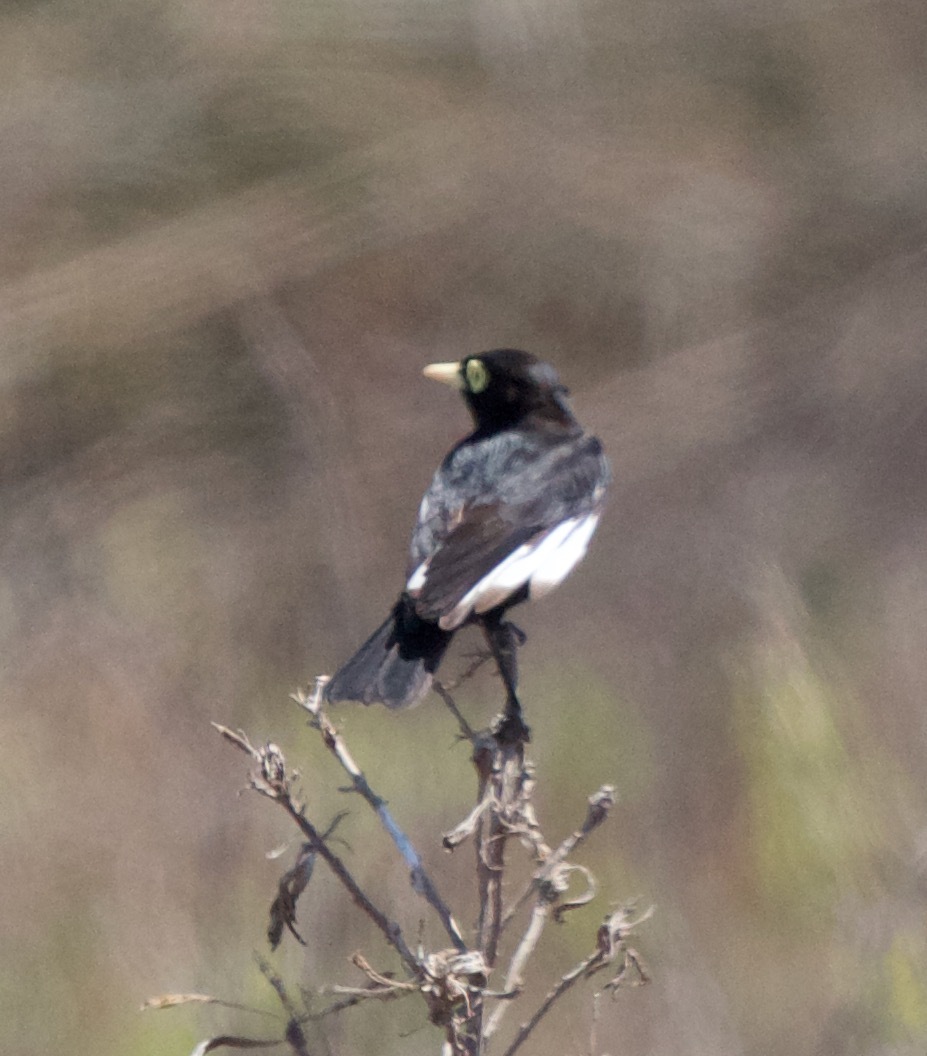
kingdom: Animalia
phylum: Chordata
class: Aves
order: Passeriformes
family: Tyrannidae
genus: Hymenops
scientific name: Hymenops perspicillatus
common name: Spectacled tyrant
